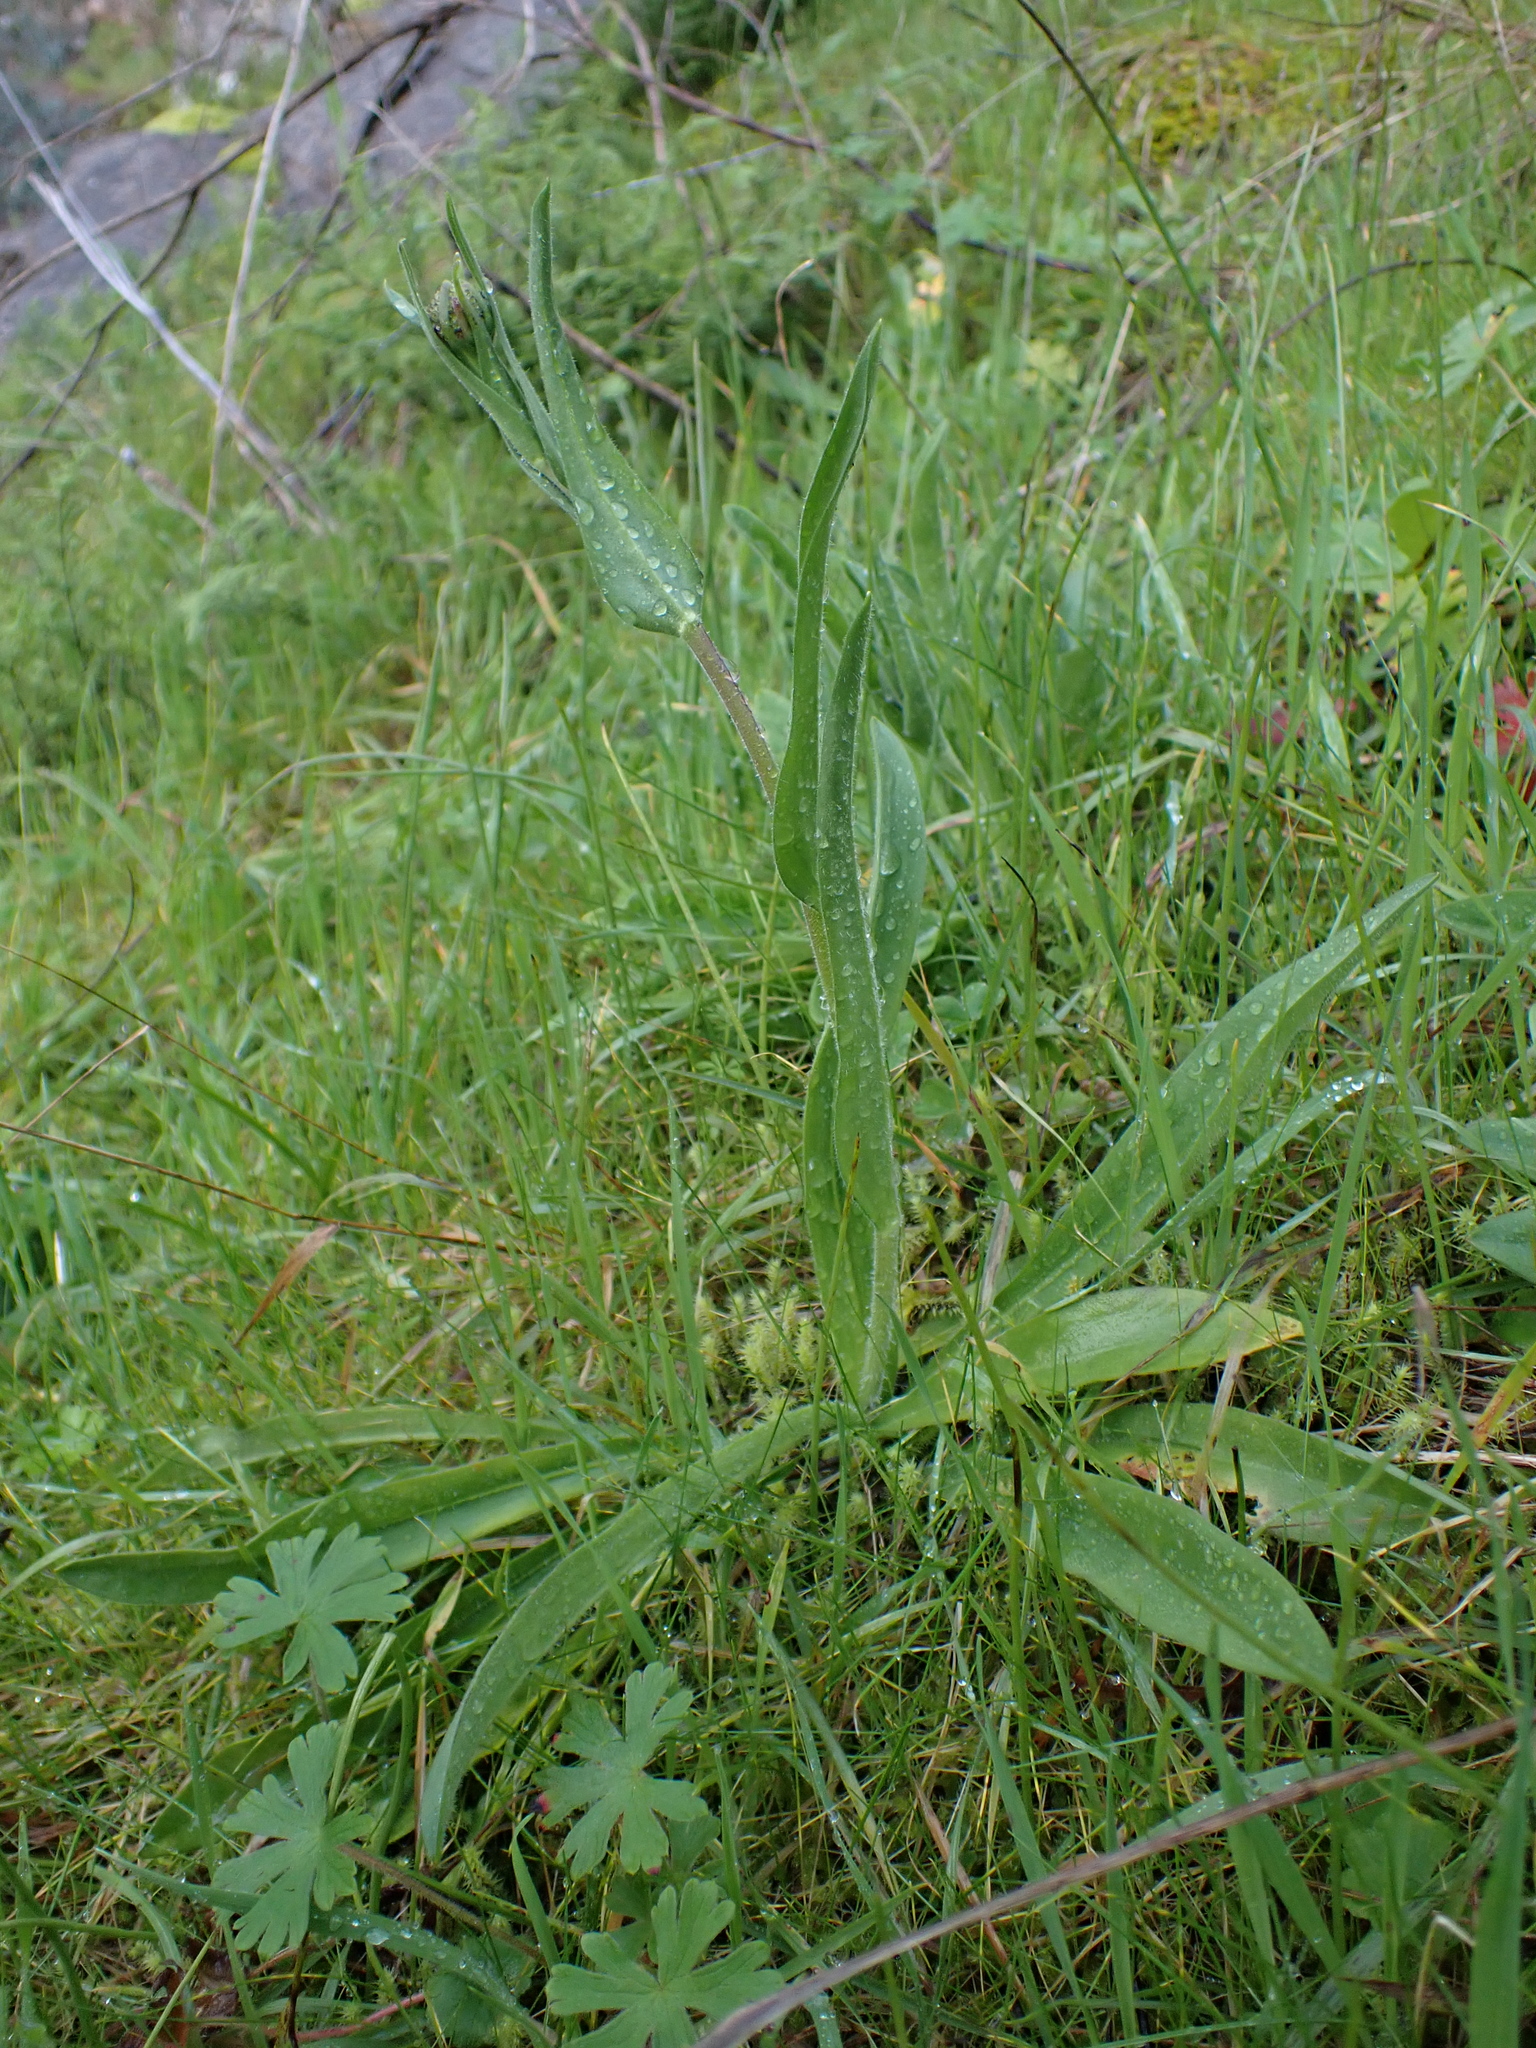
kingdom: Plantae
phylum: Tracheophyta
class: Magnoliopsida
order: Asterales
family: Asteraceae
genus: Craspedia
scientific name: Craspedia variabilis
